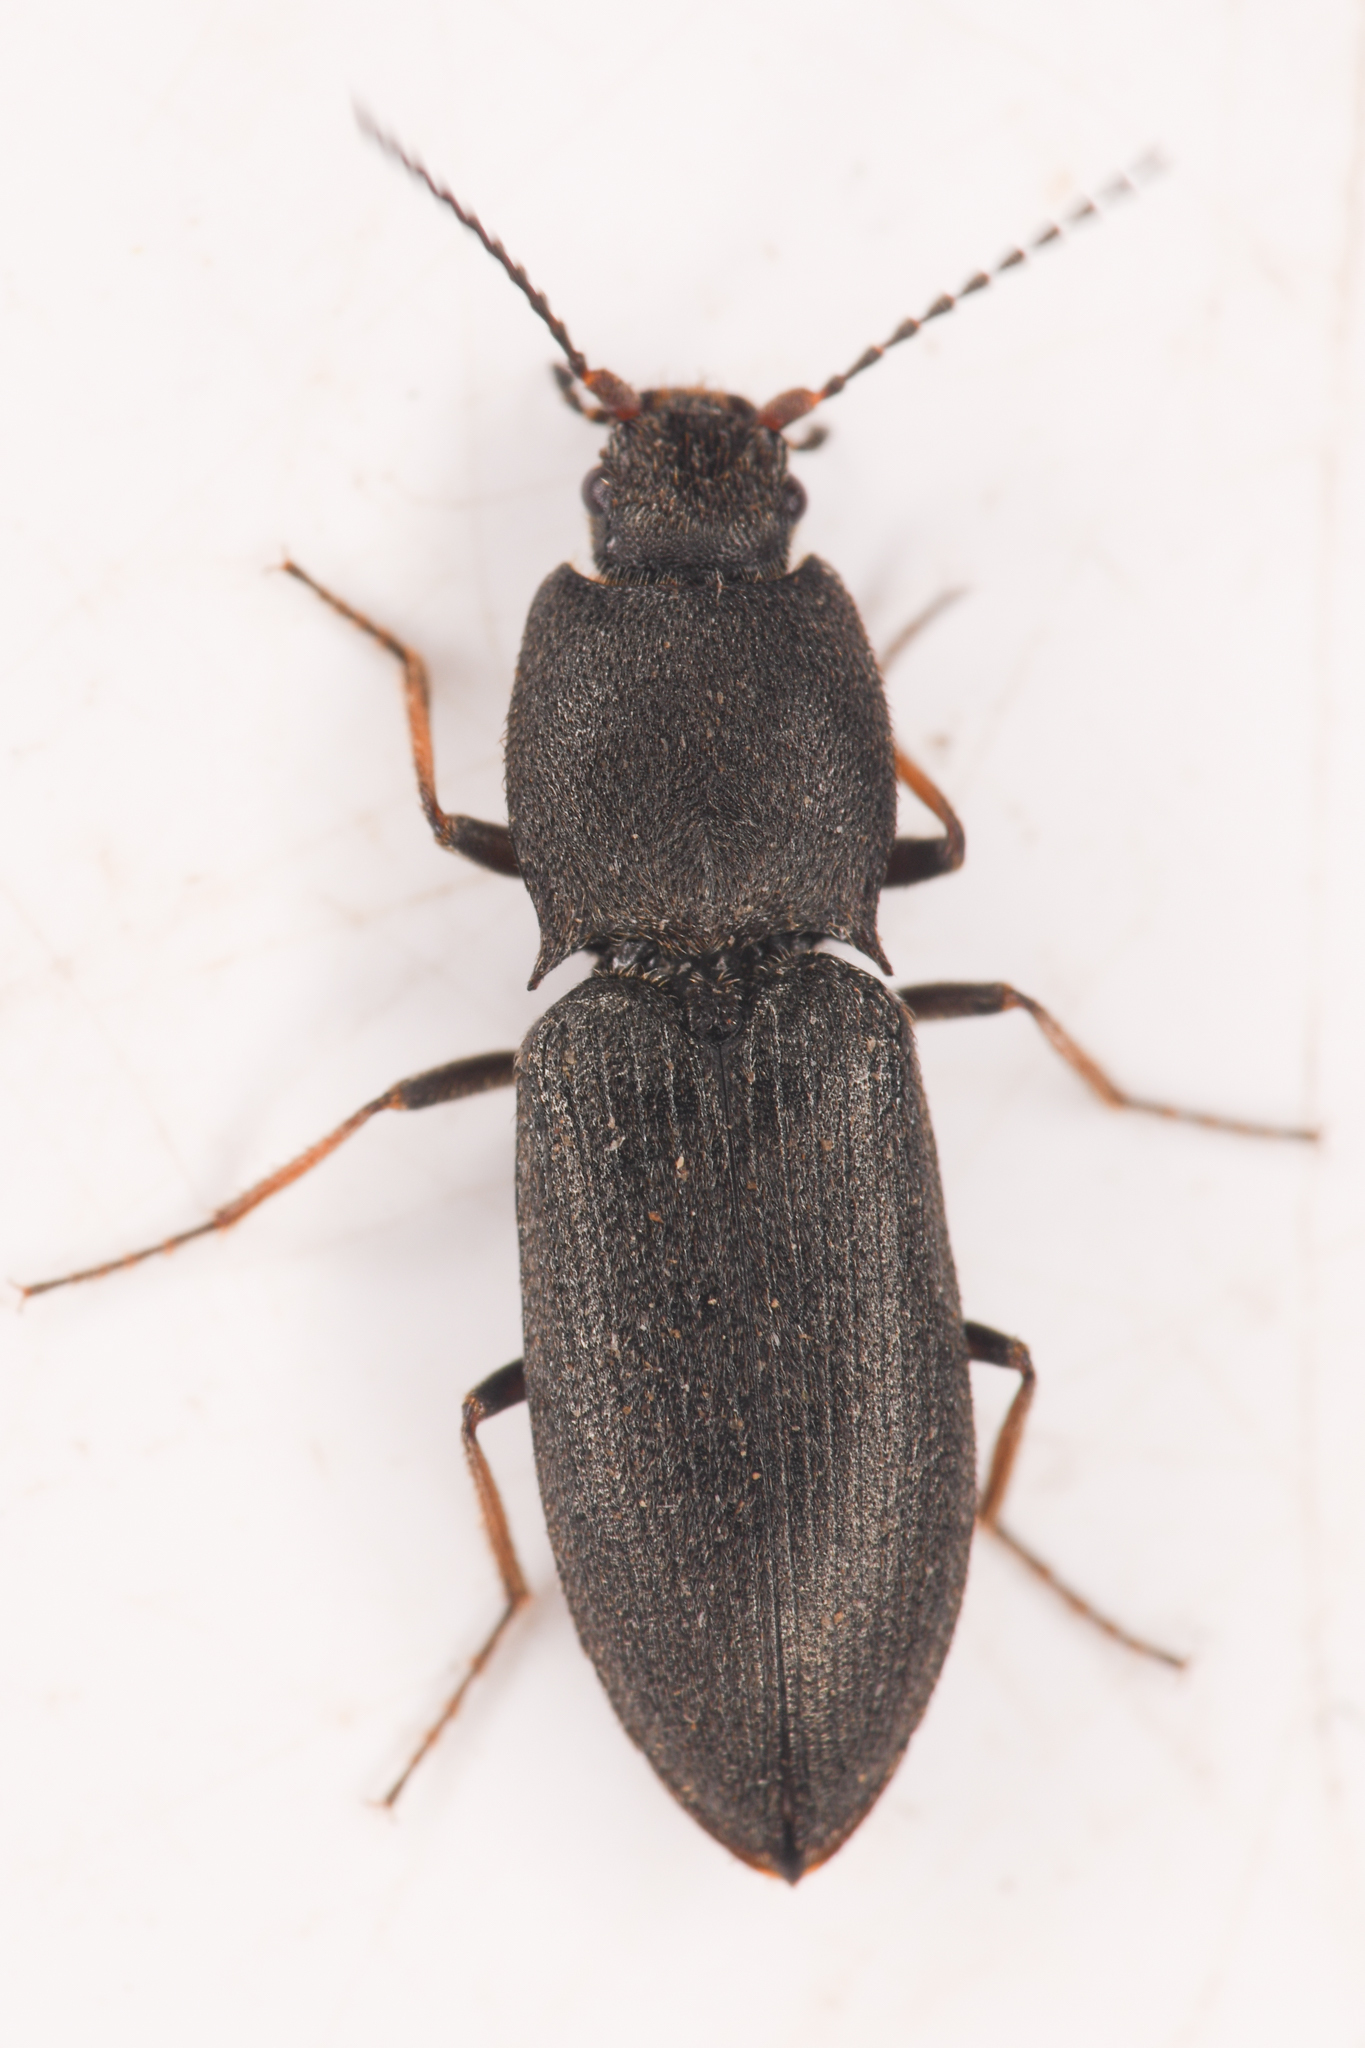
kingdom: Animalia
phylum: Arthropoda
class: Insecta
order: Coleoptera
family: Elateridae
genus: Ligmargus
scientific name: Ligmargus funebris
